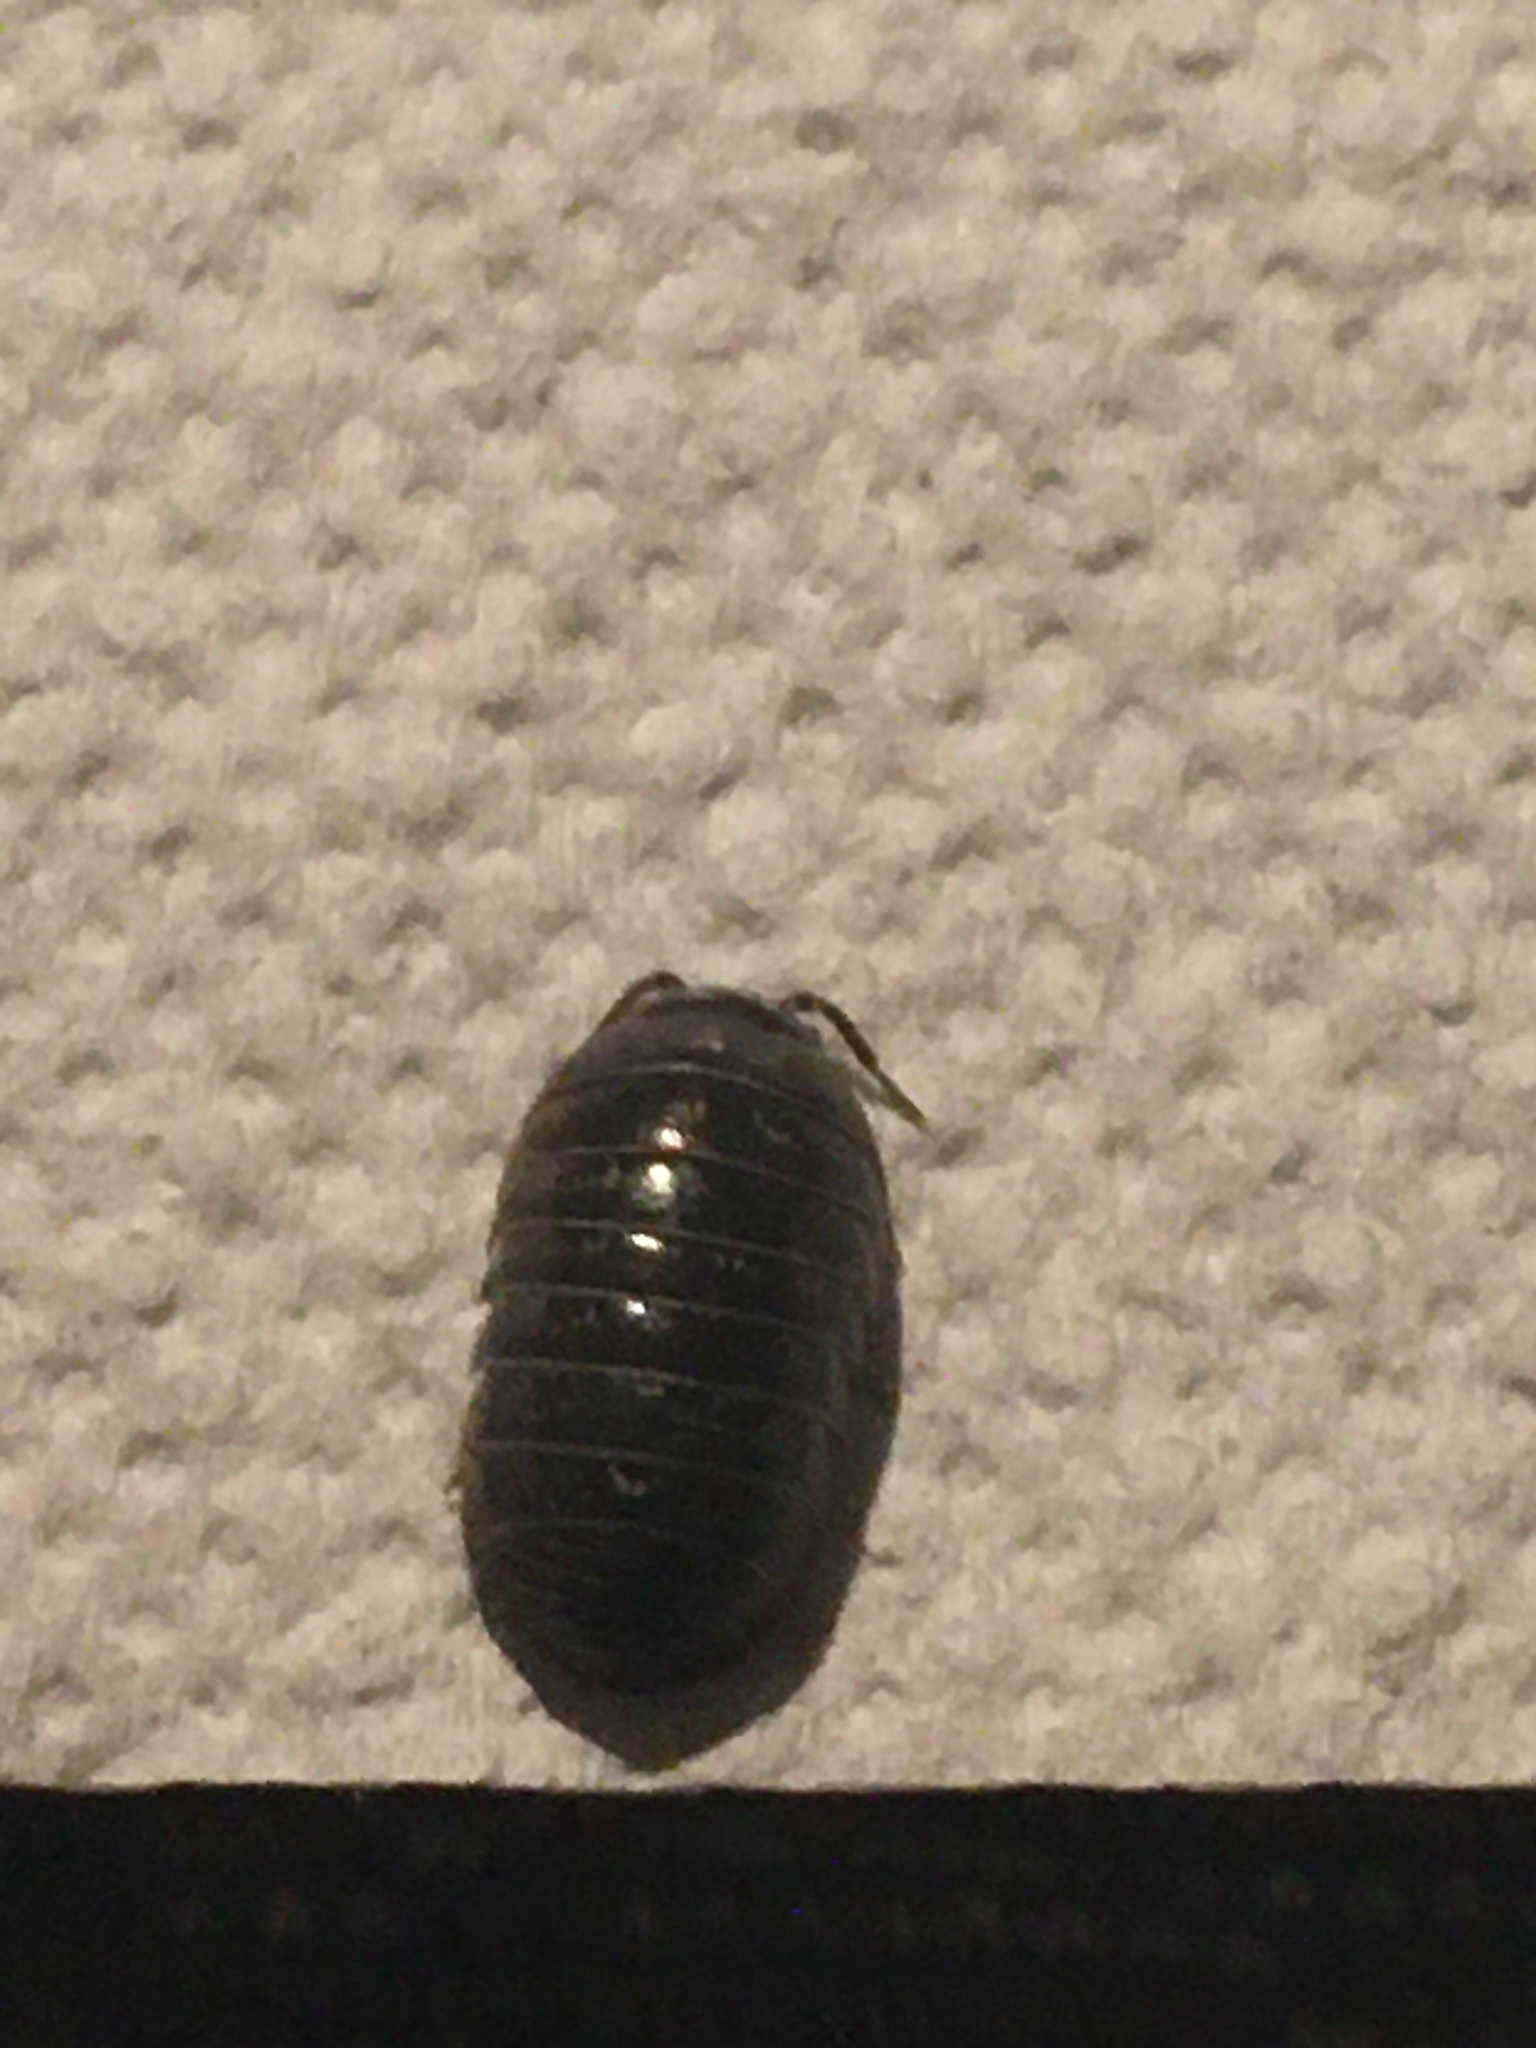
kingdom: Animalia
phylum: Arthropoda
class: Malacostraca
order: Isopoda
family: Armadillidiidae
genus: Armadillidium
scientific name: Armadillidium vulgare
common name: Common pill woodlouse
